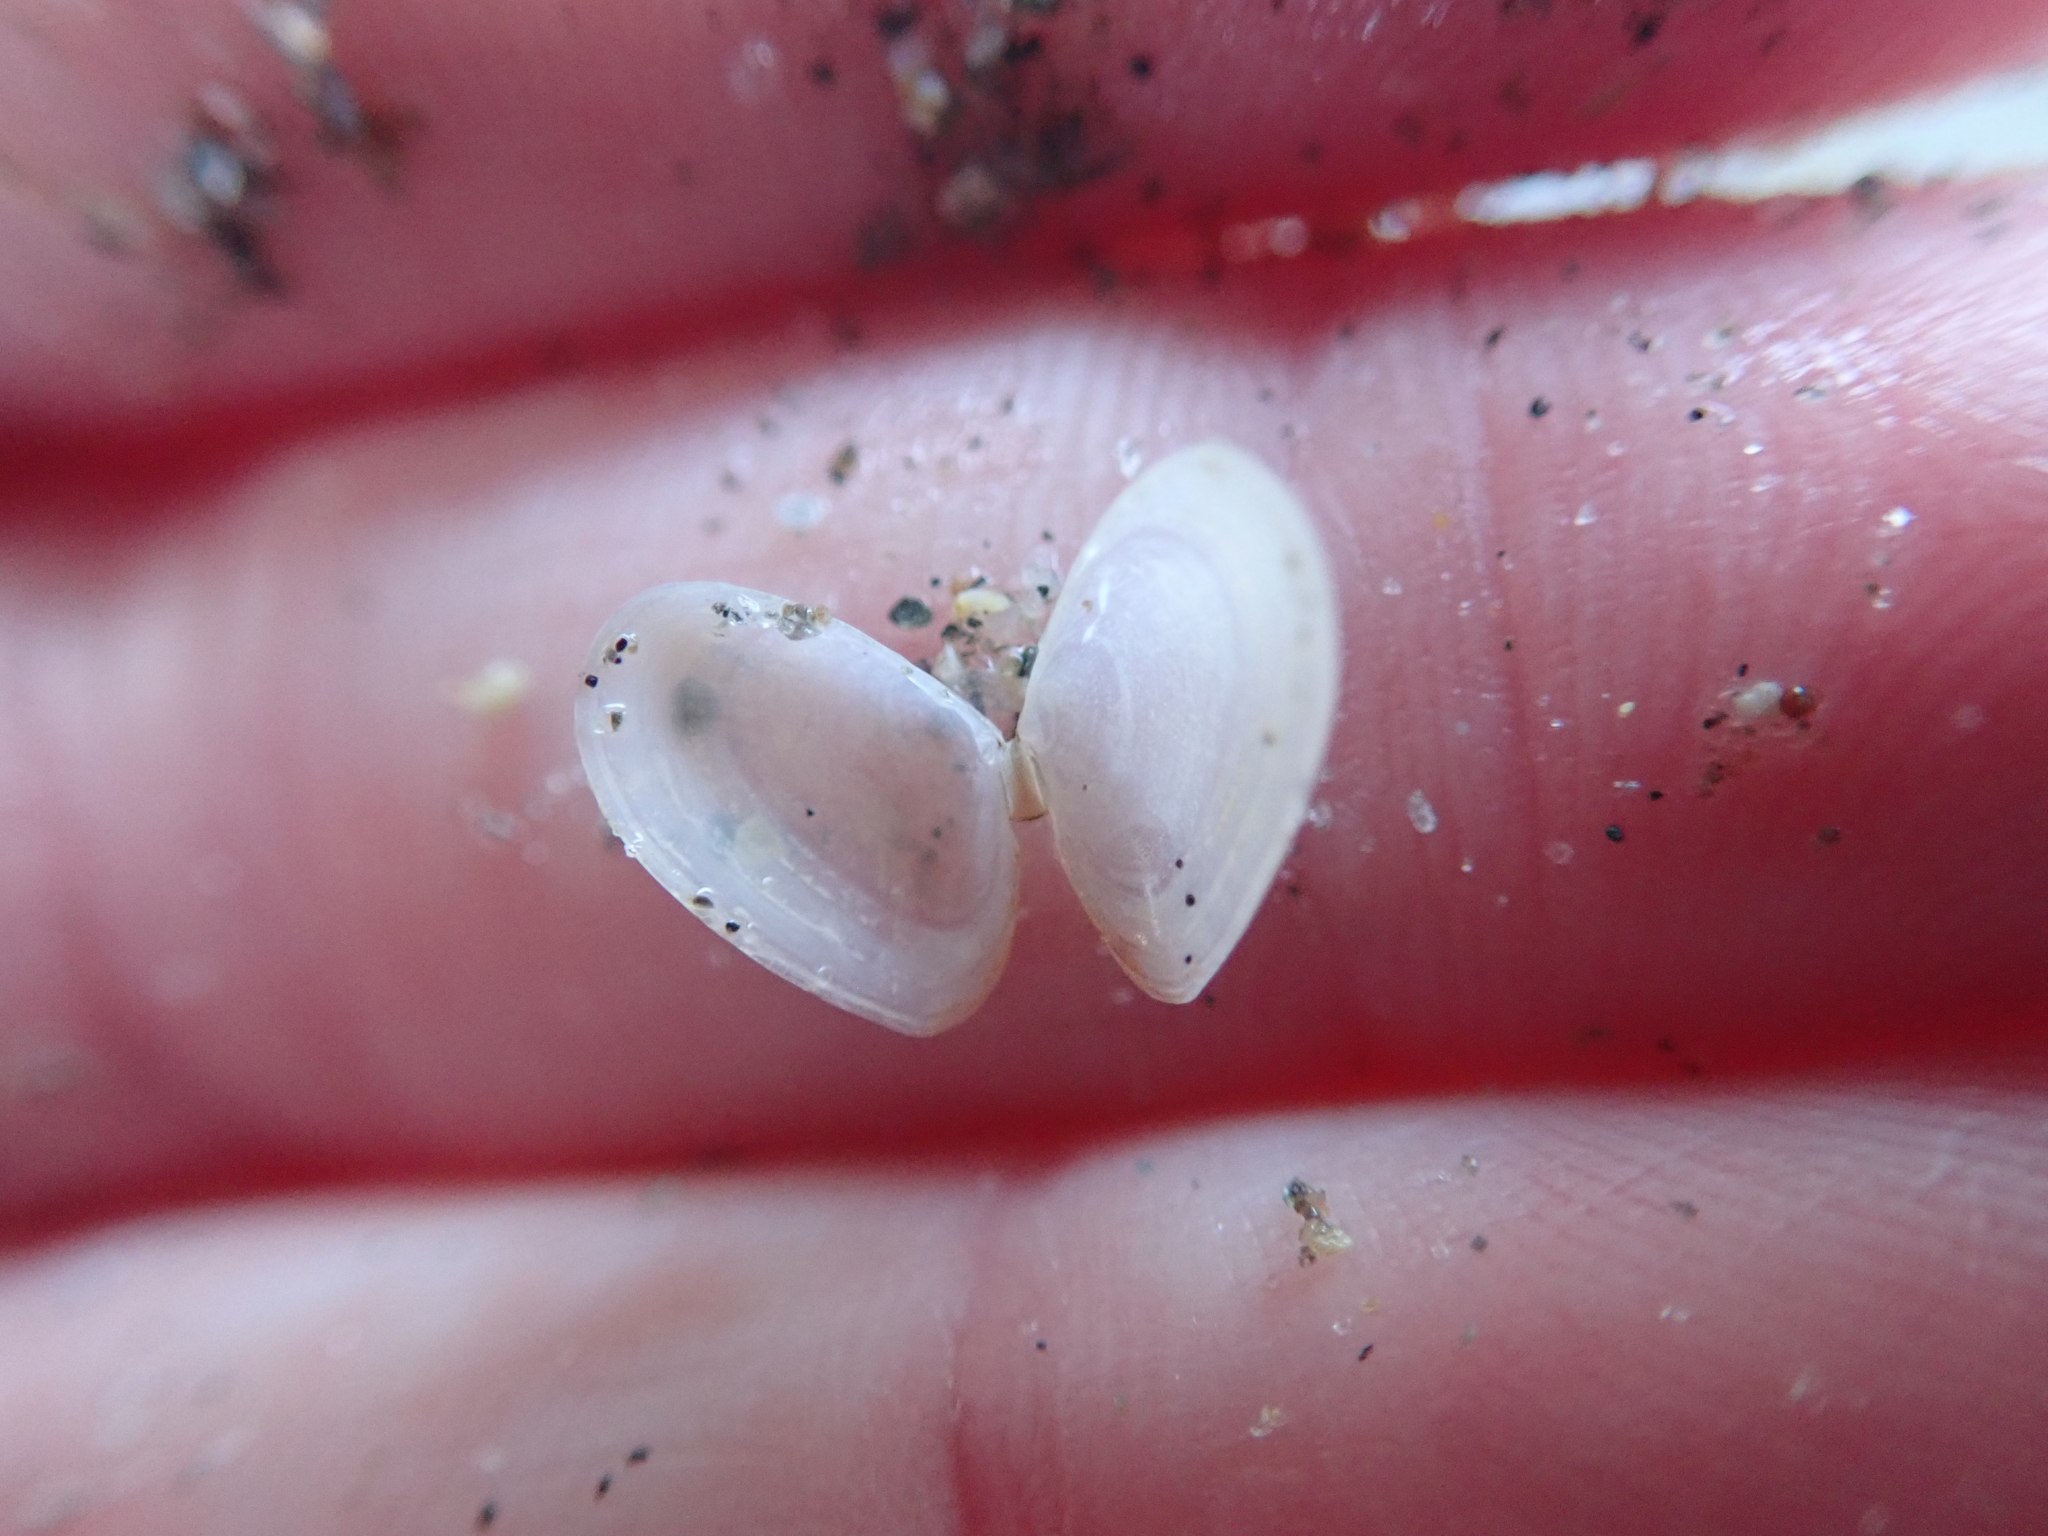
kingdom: Animalia
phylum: Mollusca
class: Bivalvia
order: Cardiida
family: Tellinidae
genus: Ameritella
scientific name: Ameritella agilis
